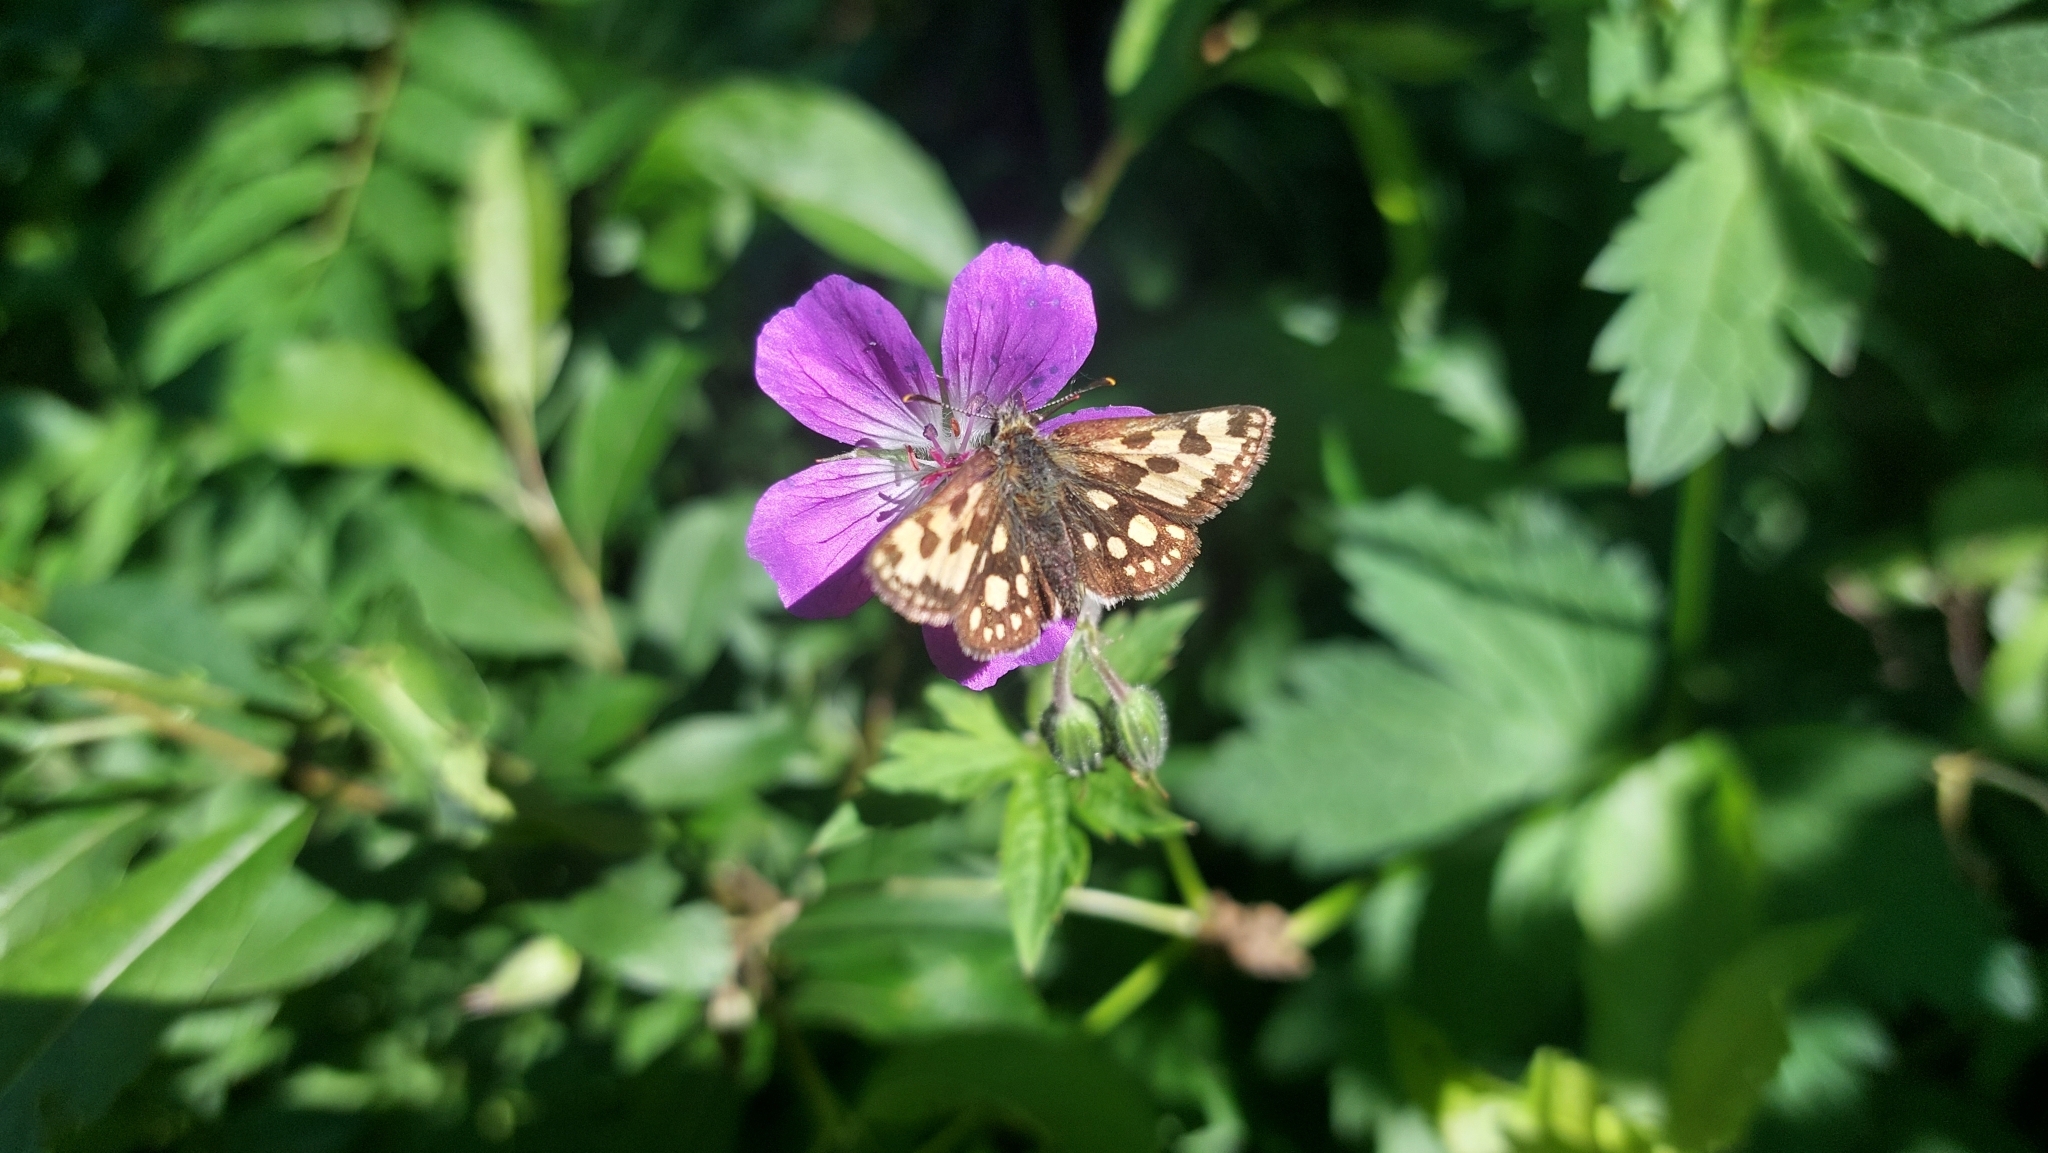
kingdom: Animalia
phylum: Arthropoda
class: Insecta
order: Lepidoptera
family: Hesperiidae
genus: Carterocephalus
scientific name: Carterocephalus silvicola
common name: Northern chequered skipper
